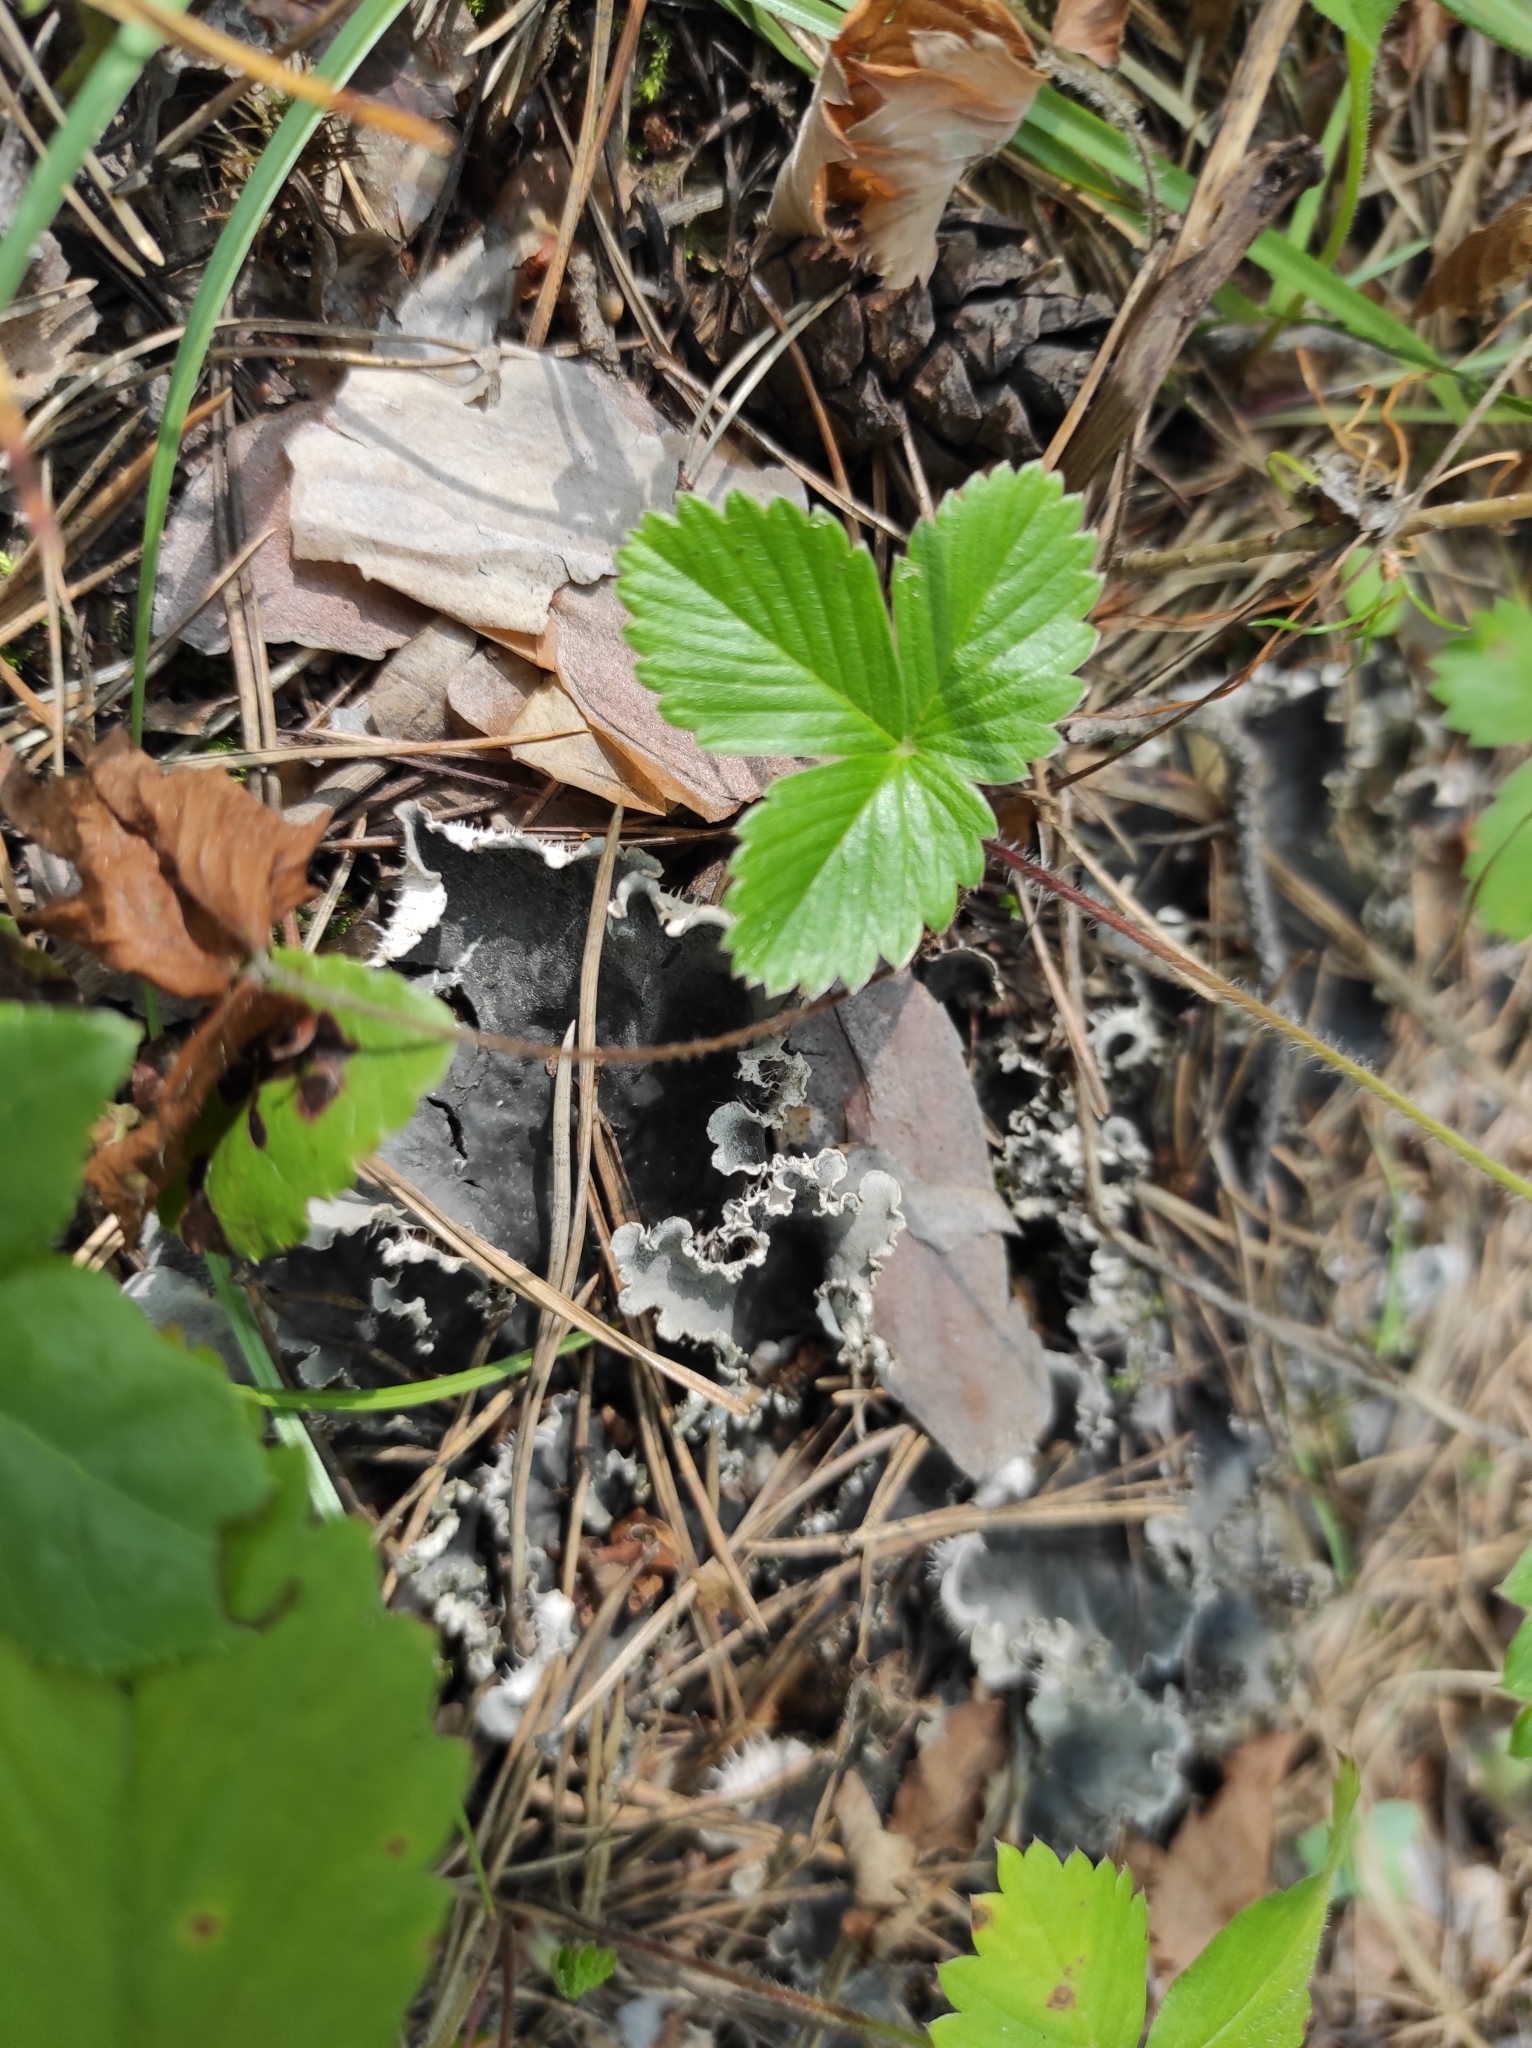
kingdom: Plantae
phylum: Tracheophyta
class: Magnoliopsida
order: Rosales
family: Rosaceae
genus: Fragaria
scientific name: Fragaria vesca
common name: Wild strawberry
